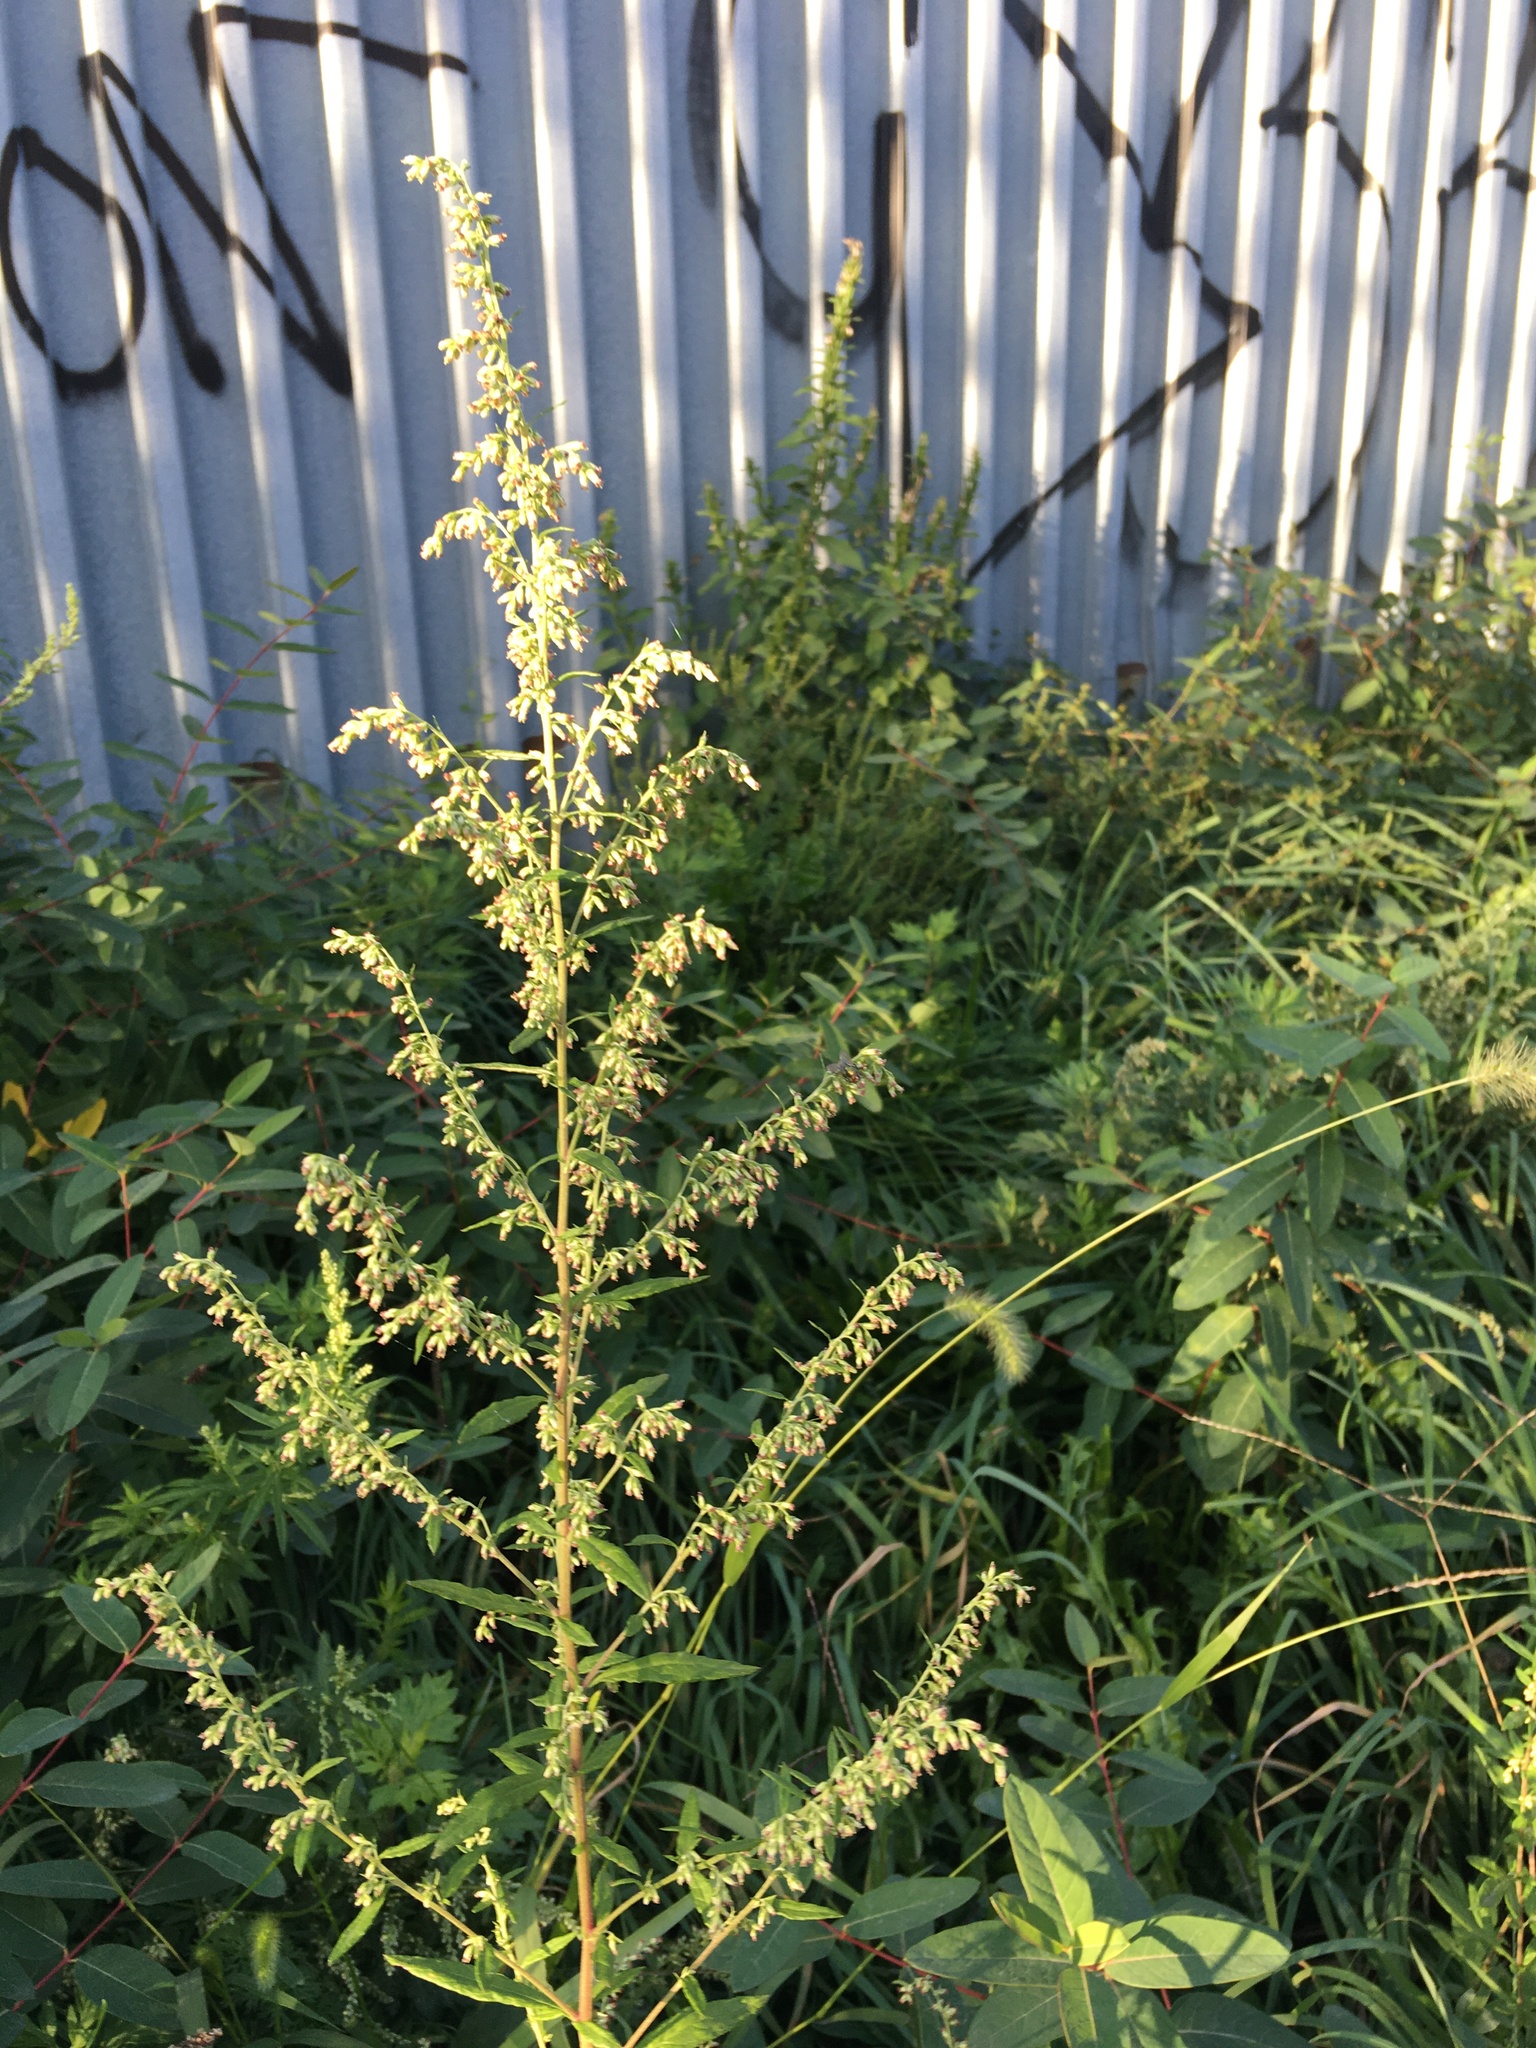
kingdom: Plantae
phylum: Tracheophyta
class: Magnoliopsida
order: Asterales
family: Asteraceae
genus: Artemisia
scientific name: Artemisia vulgaris
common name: Mugwort
